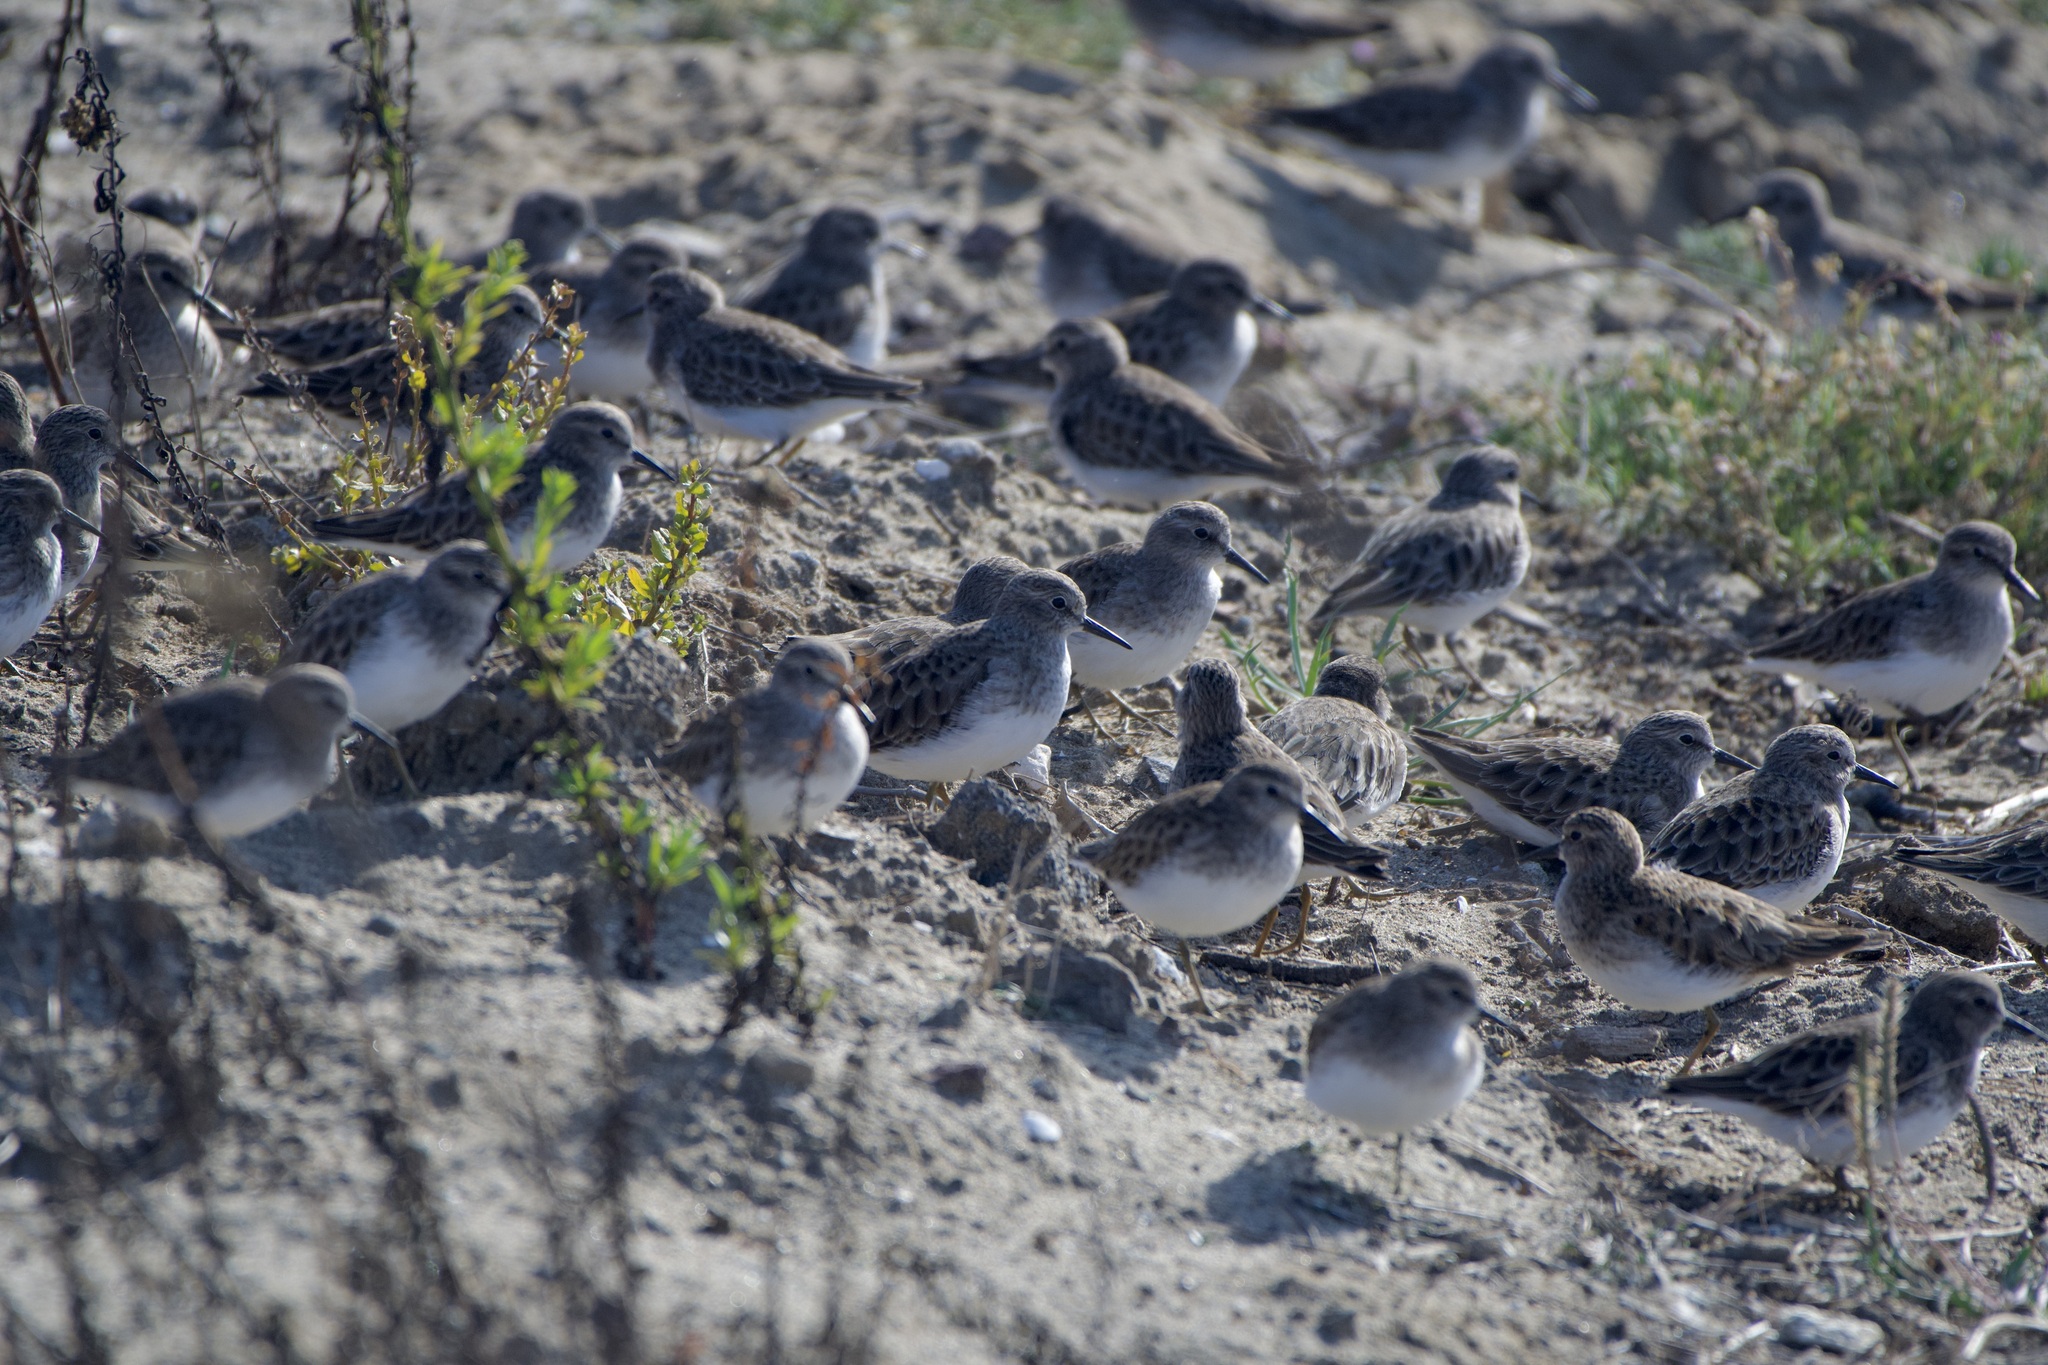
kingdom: Animalia
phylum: Chordata
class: Aves
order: Charadriiformes
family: Scolopacidae
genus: Calidris
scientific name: Calidris minutilla
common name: Least sandpiper
